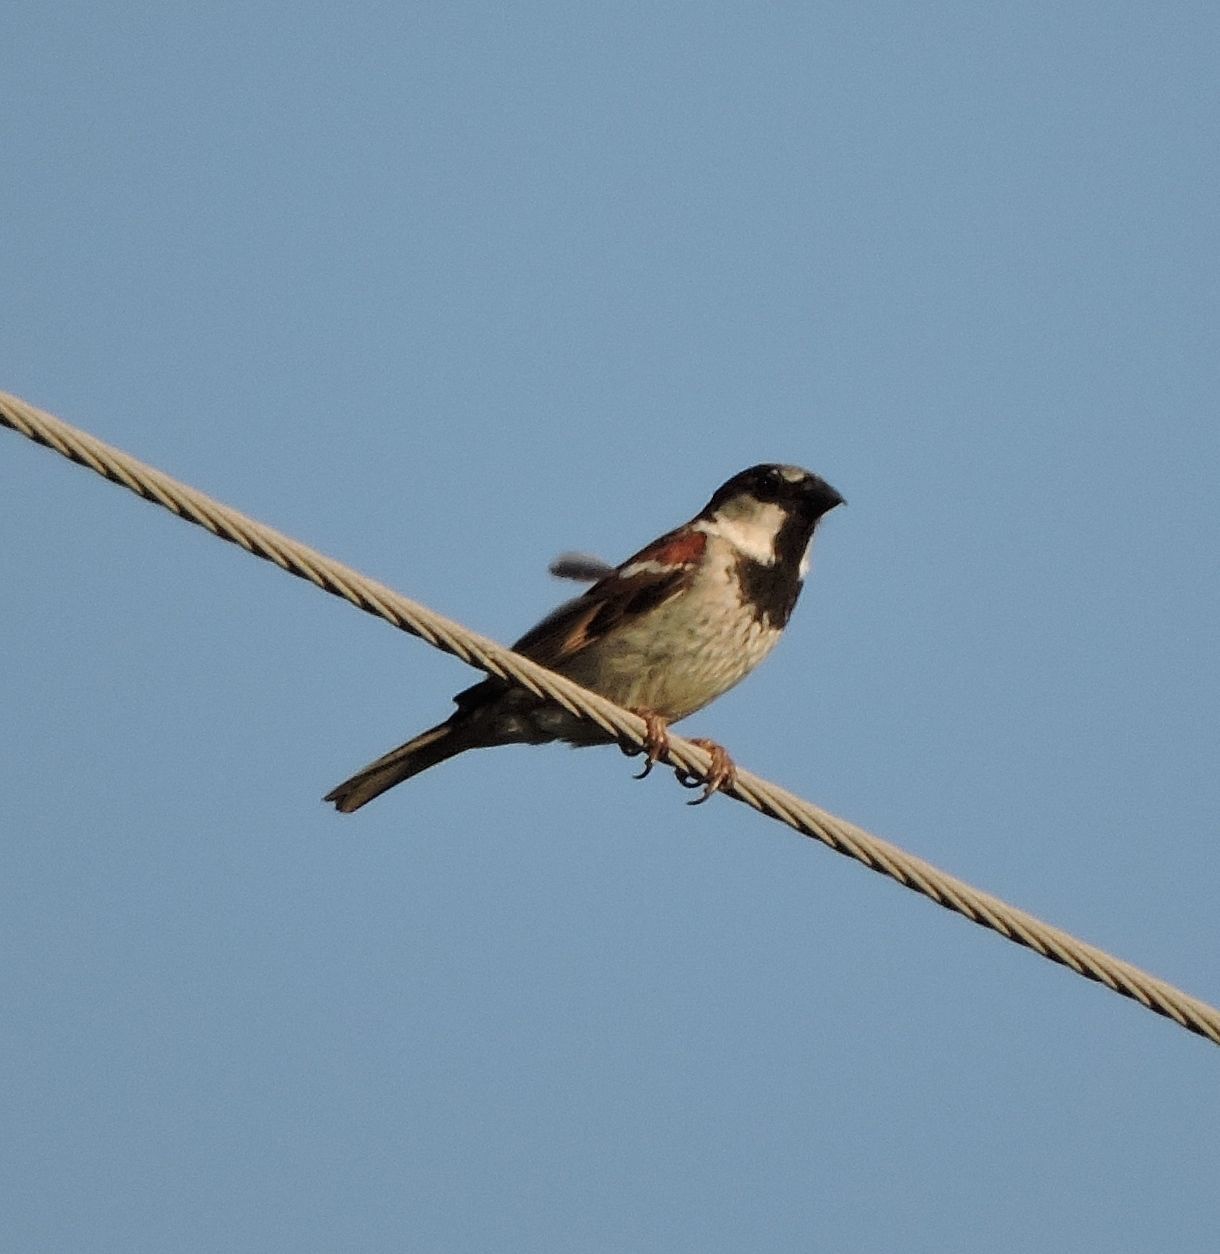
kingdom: Animalia
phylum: Chordata
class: Aves
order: Passeriformes
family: Passeridae
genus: Passer
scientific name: Passer domesticus
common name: House sparrow
